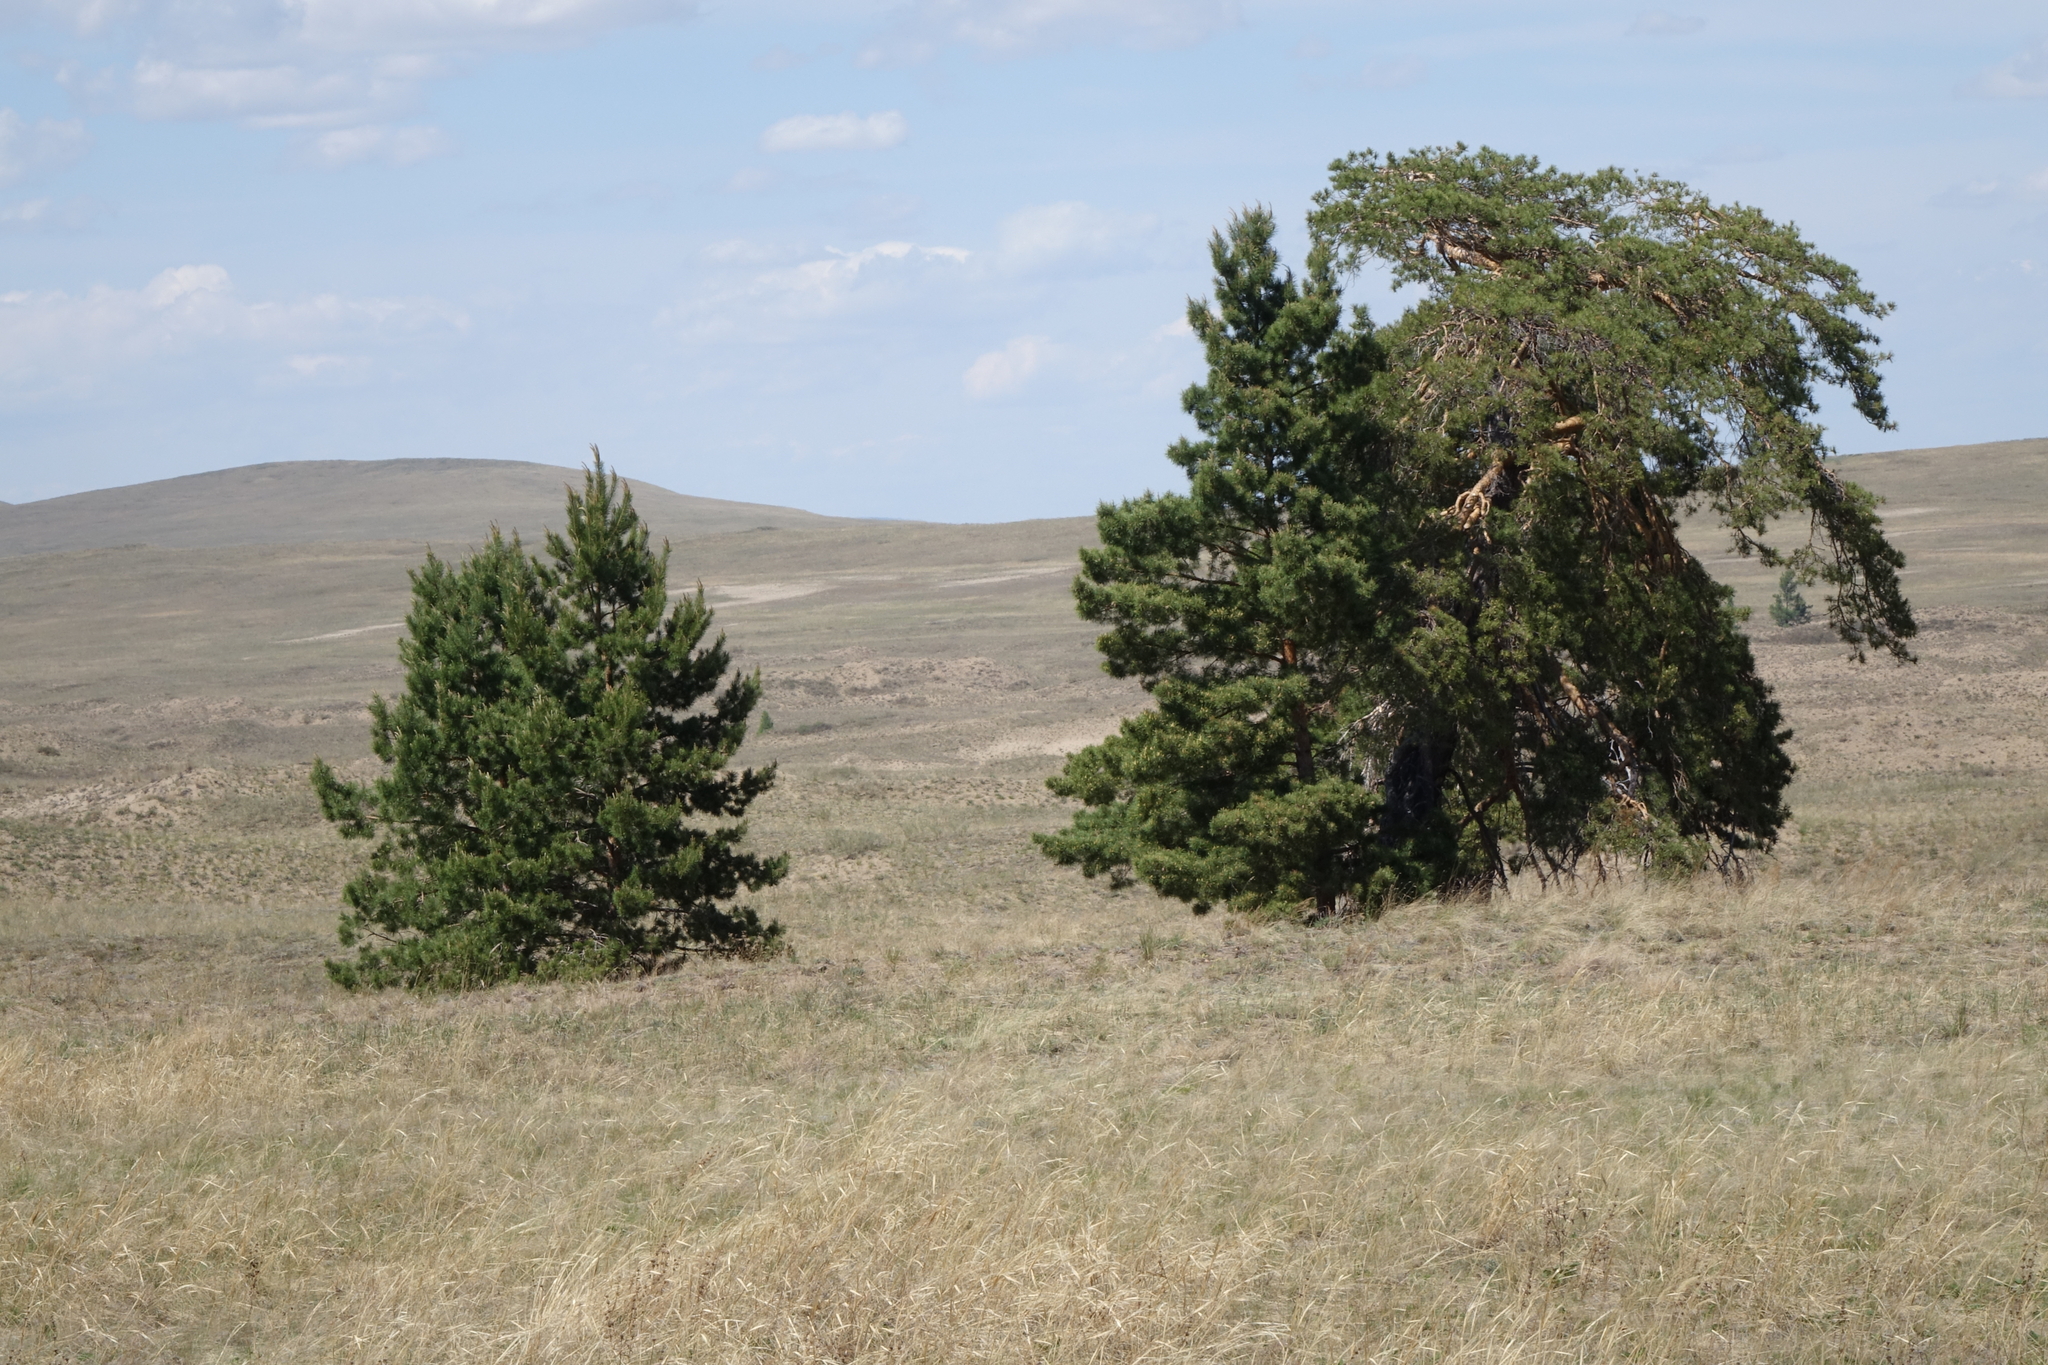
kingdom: Plantae
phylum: Tracheophyta
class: Pinopsida
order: Pinales
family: Pinaceae
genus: Pinus
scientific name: Pinus sylvestris
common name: Scots pine
